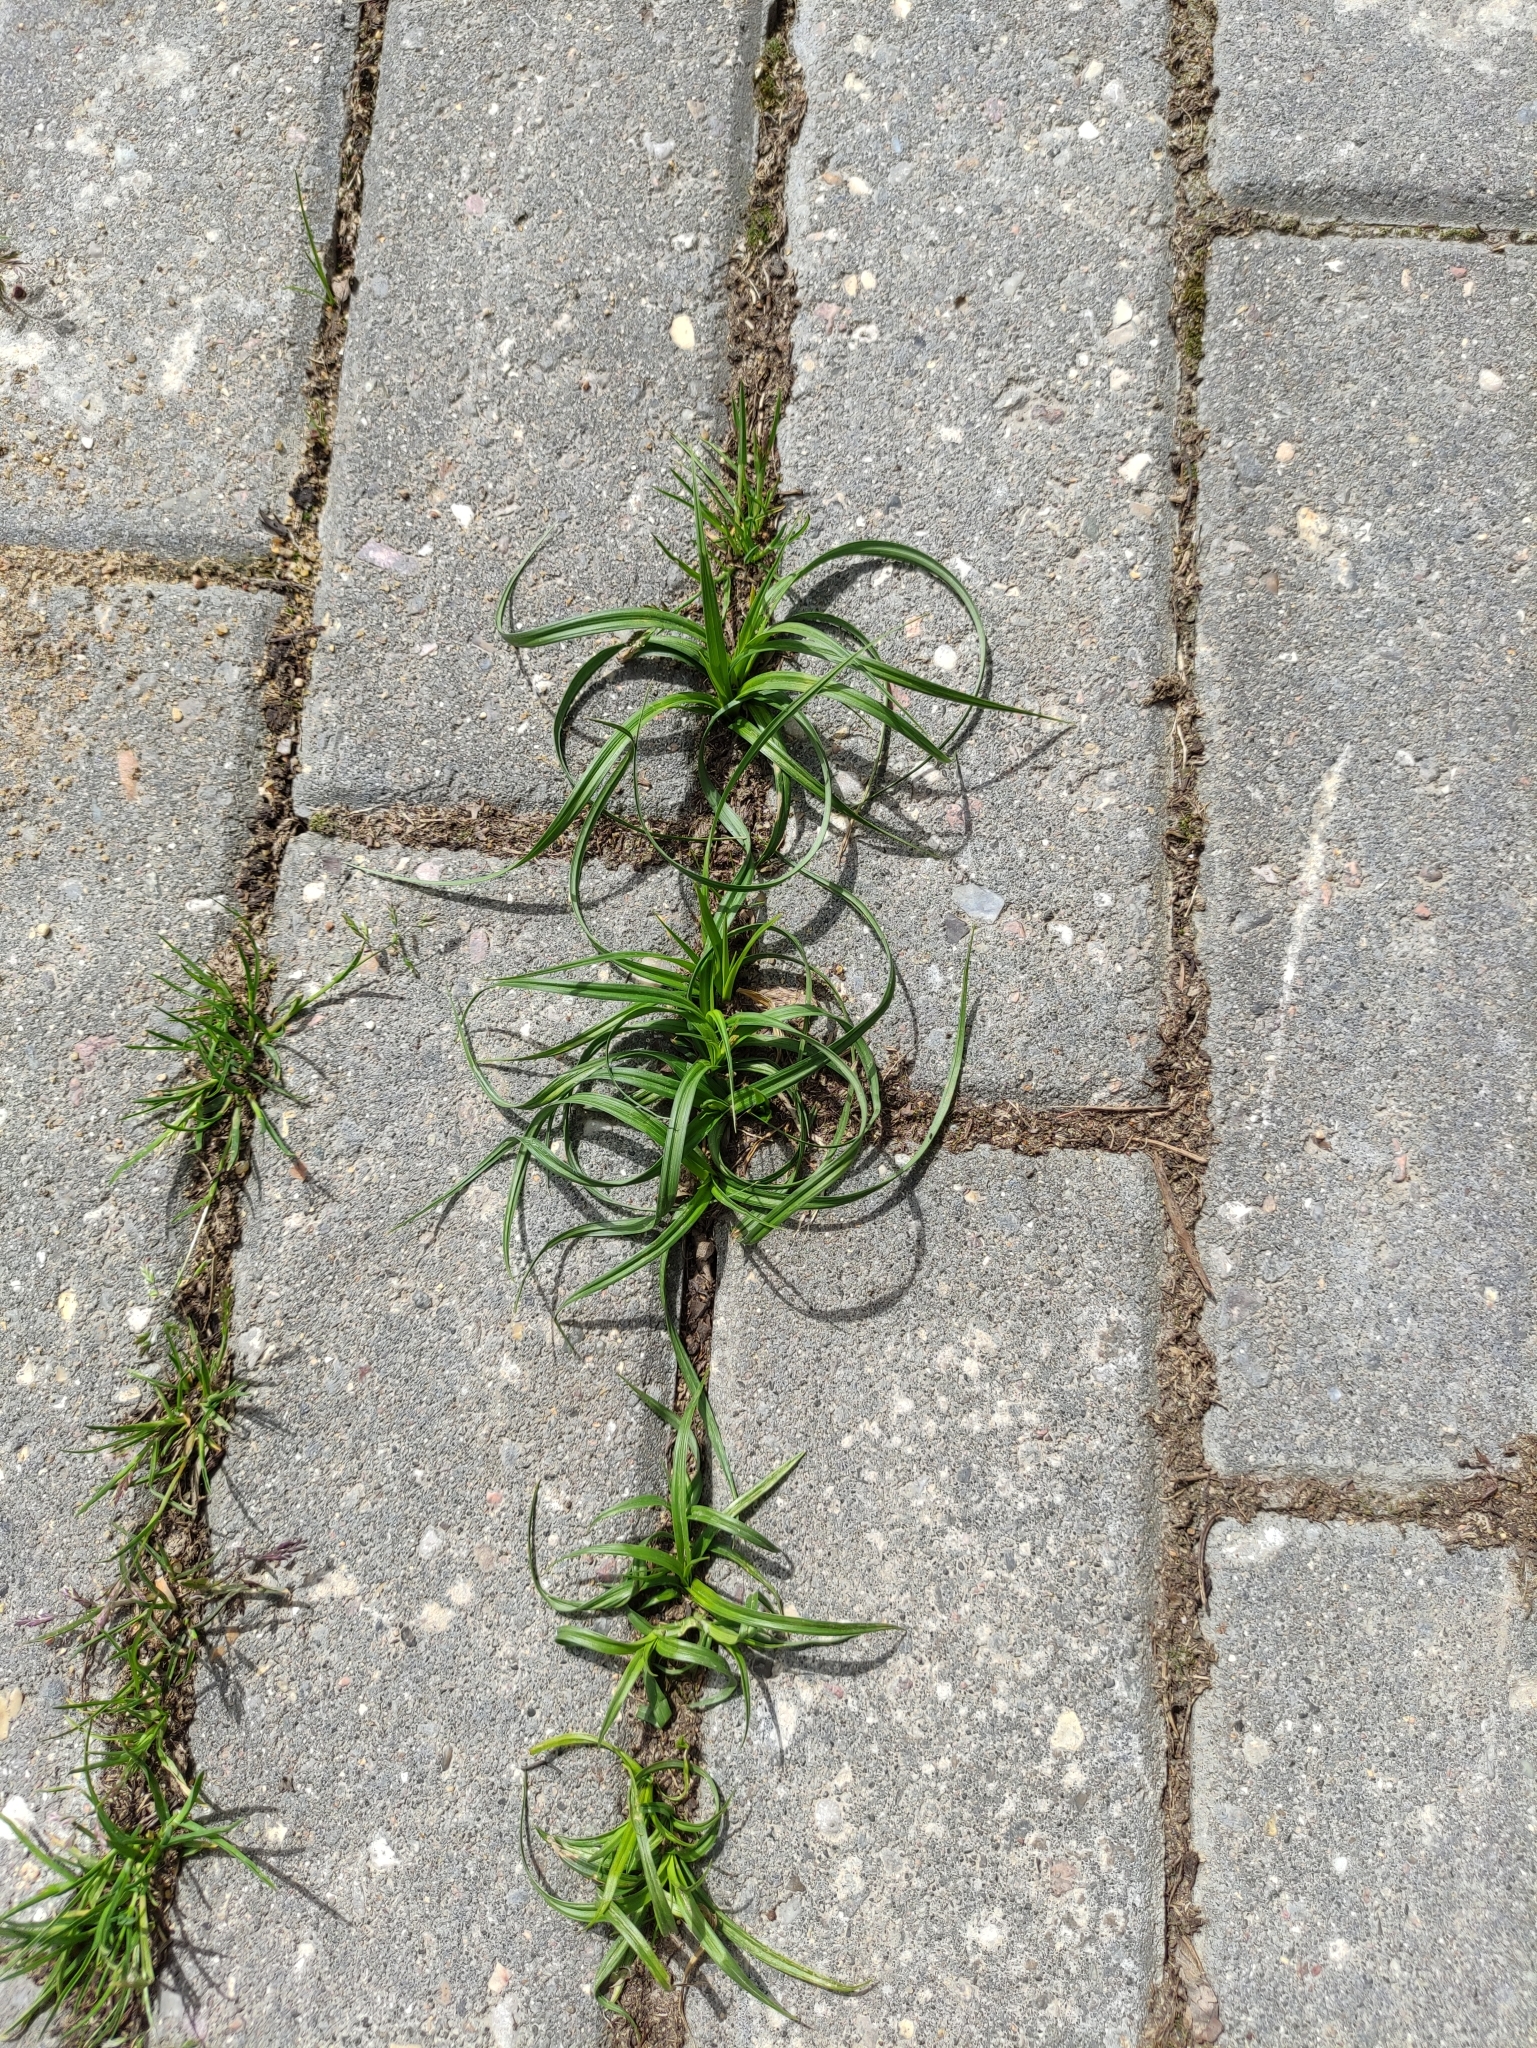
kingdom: Plantae
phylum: Tracheophyta
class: Liliopsida
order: Poales
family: Cyperaceae
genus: Carex
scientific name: Carex hirta
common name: Hairy sedge
